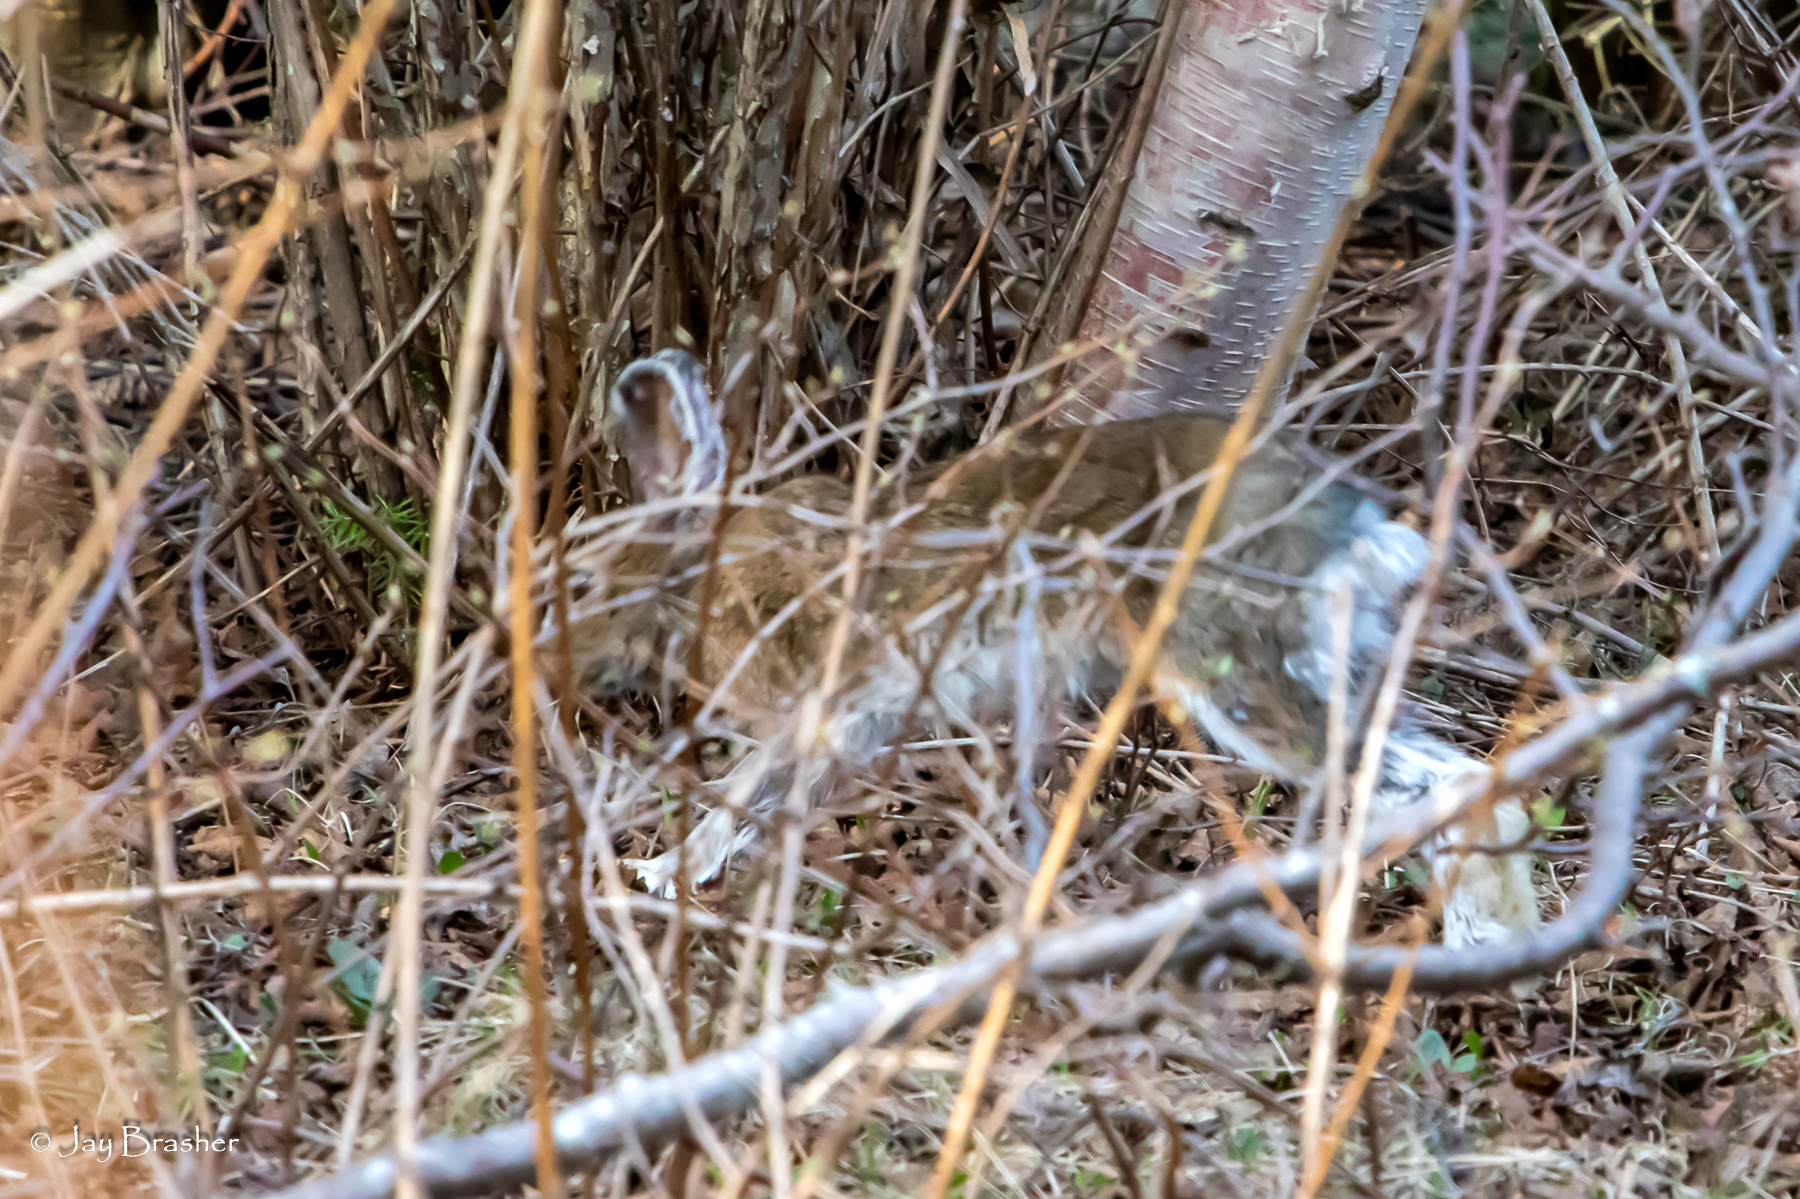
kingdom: Animalia
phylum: Chordata
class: Mammalia
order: Lagomorpha
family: Leporidae
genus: Lepus
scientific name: Lepus americanus
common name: Snowshoe hare
